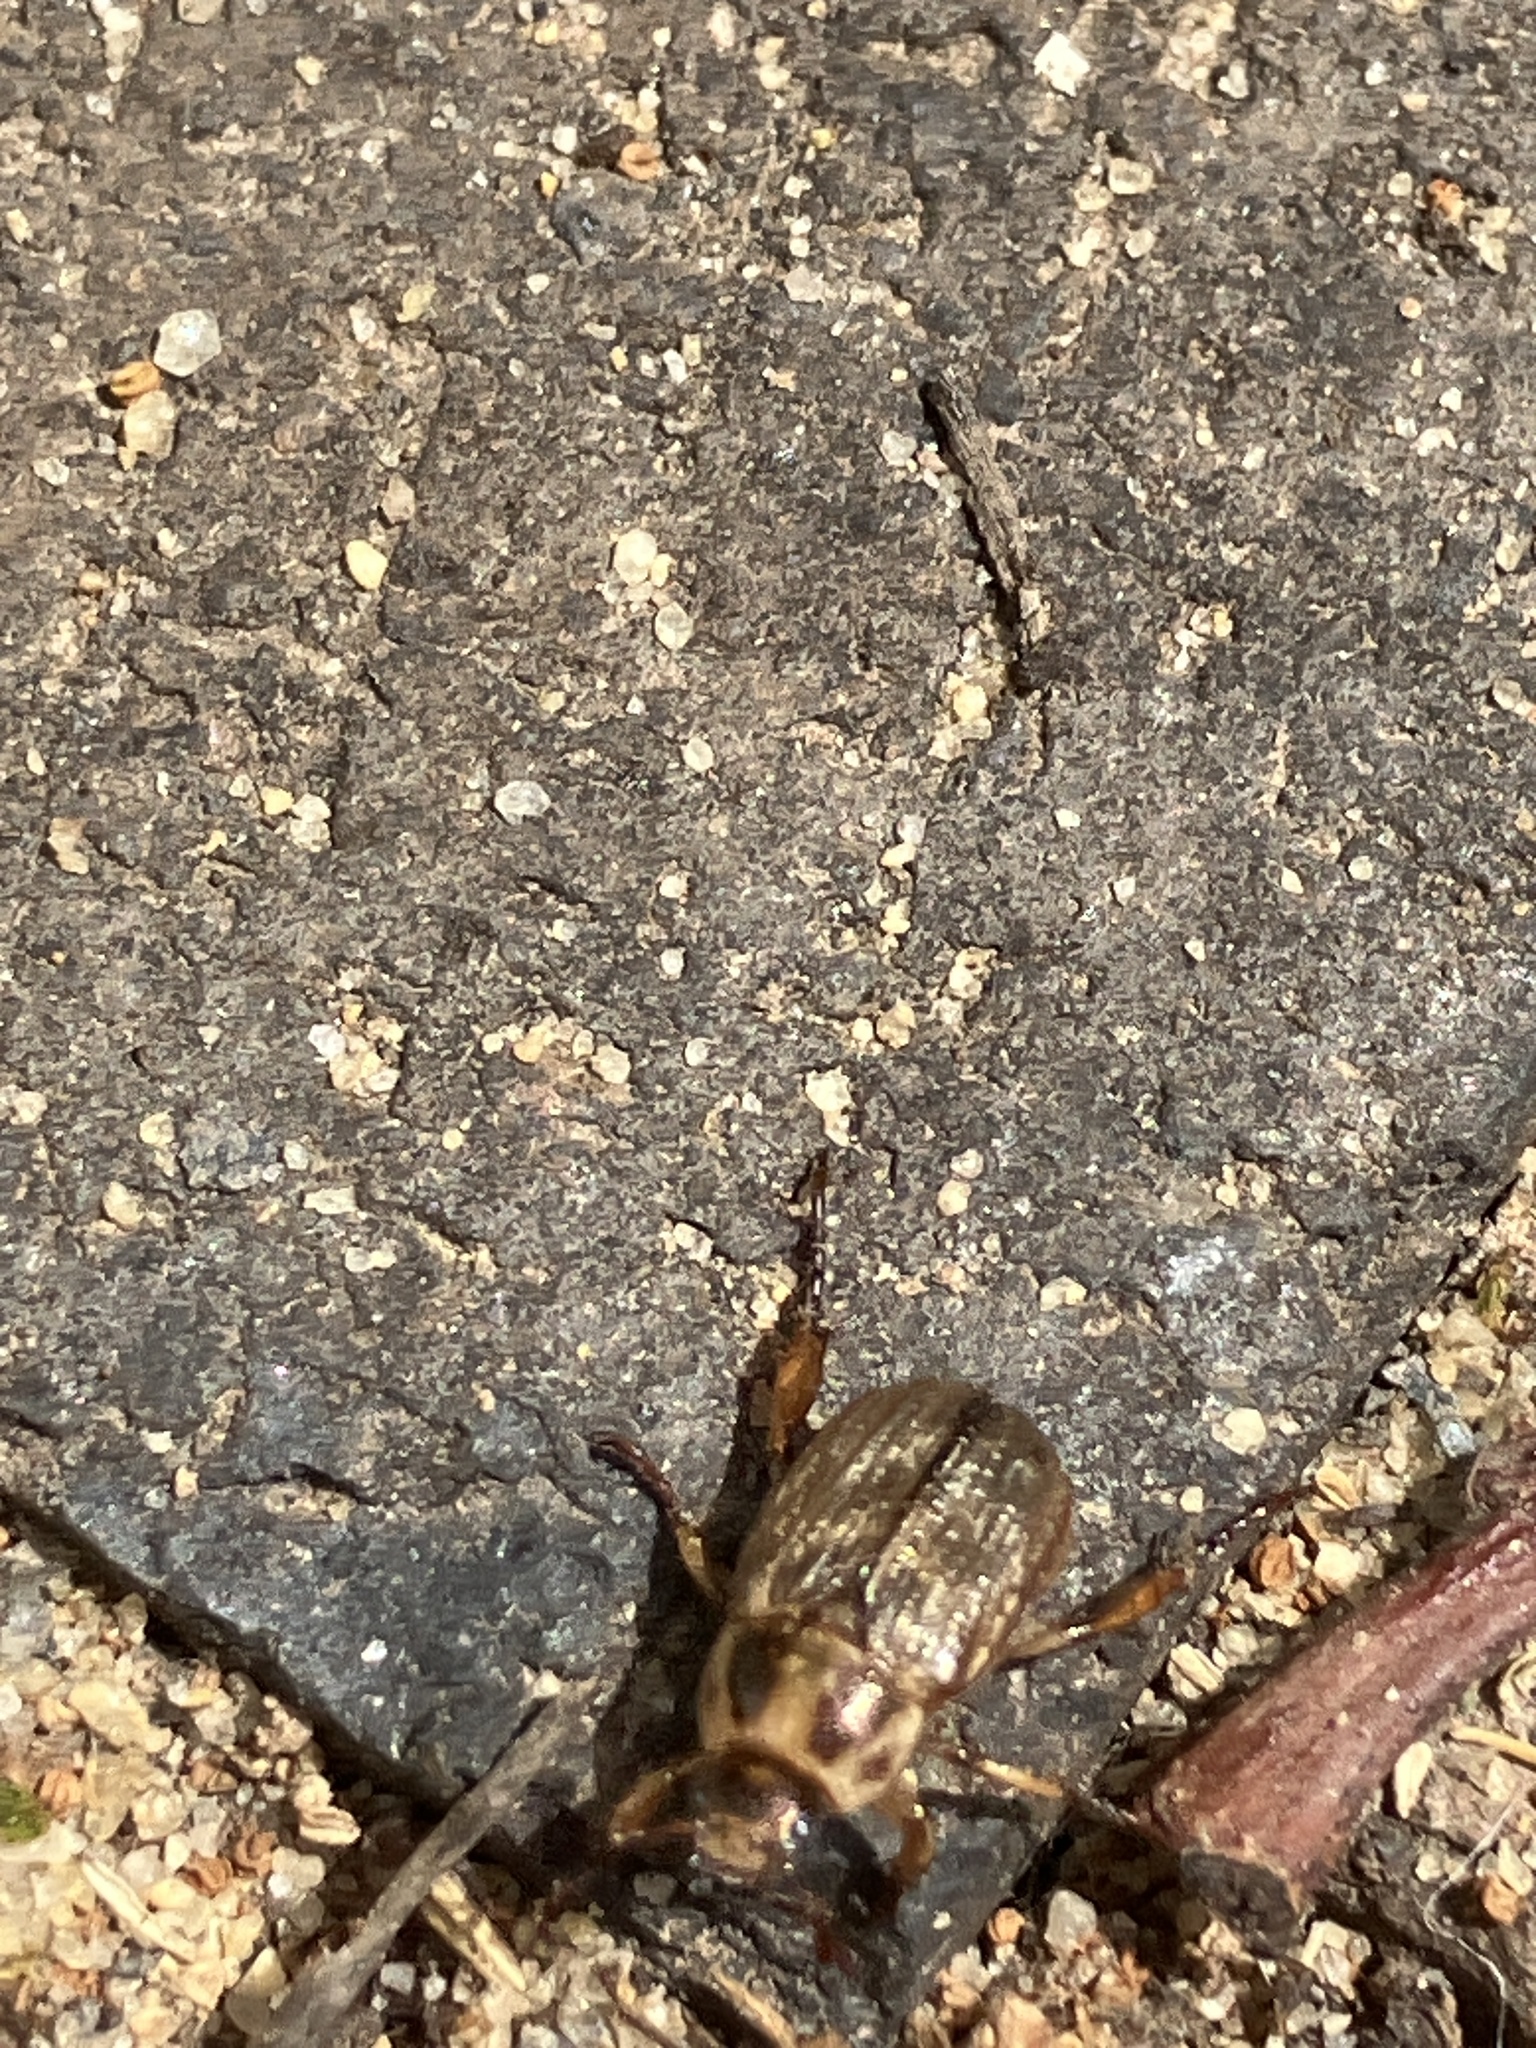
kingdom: Animalia
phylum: Arthropoda
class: Insecta
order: Coleoptera
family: Scarabaeidae
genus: Exomala
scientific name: Exomala orientalis
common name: Oriental beetle
